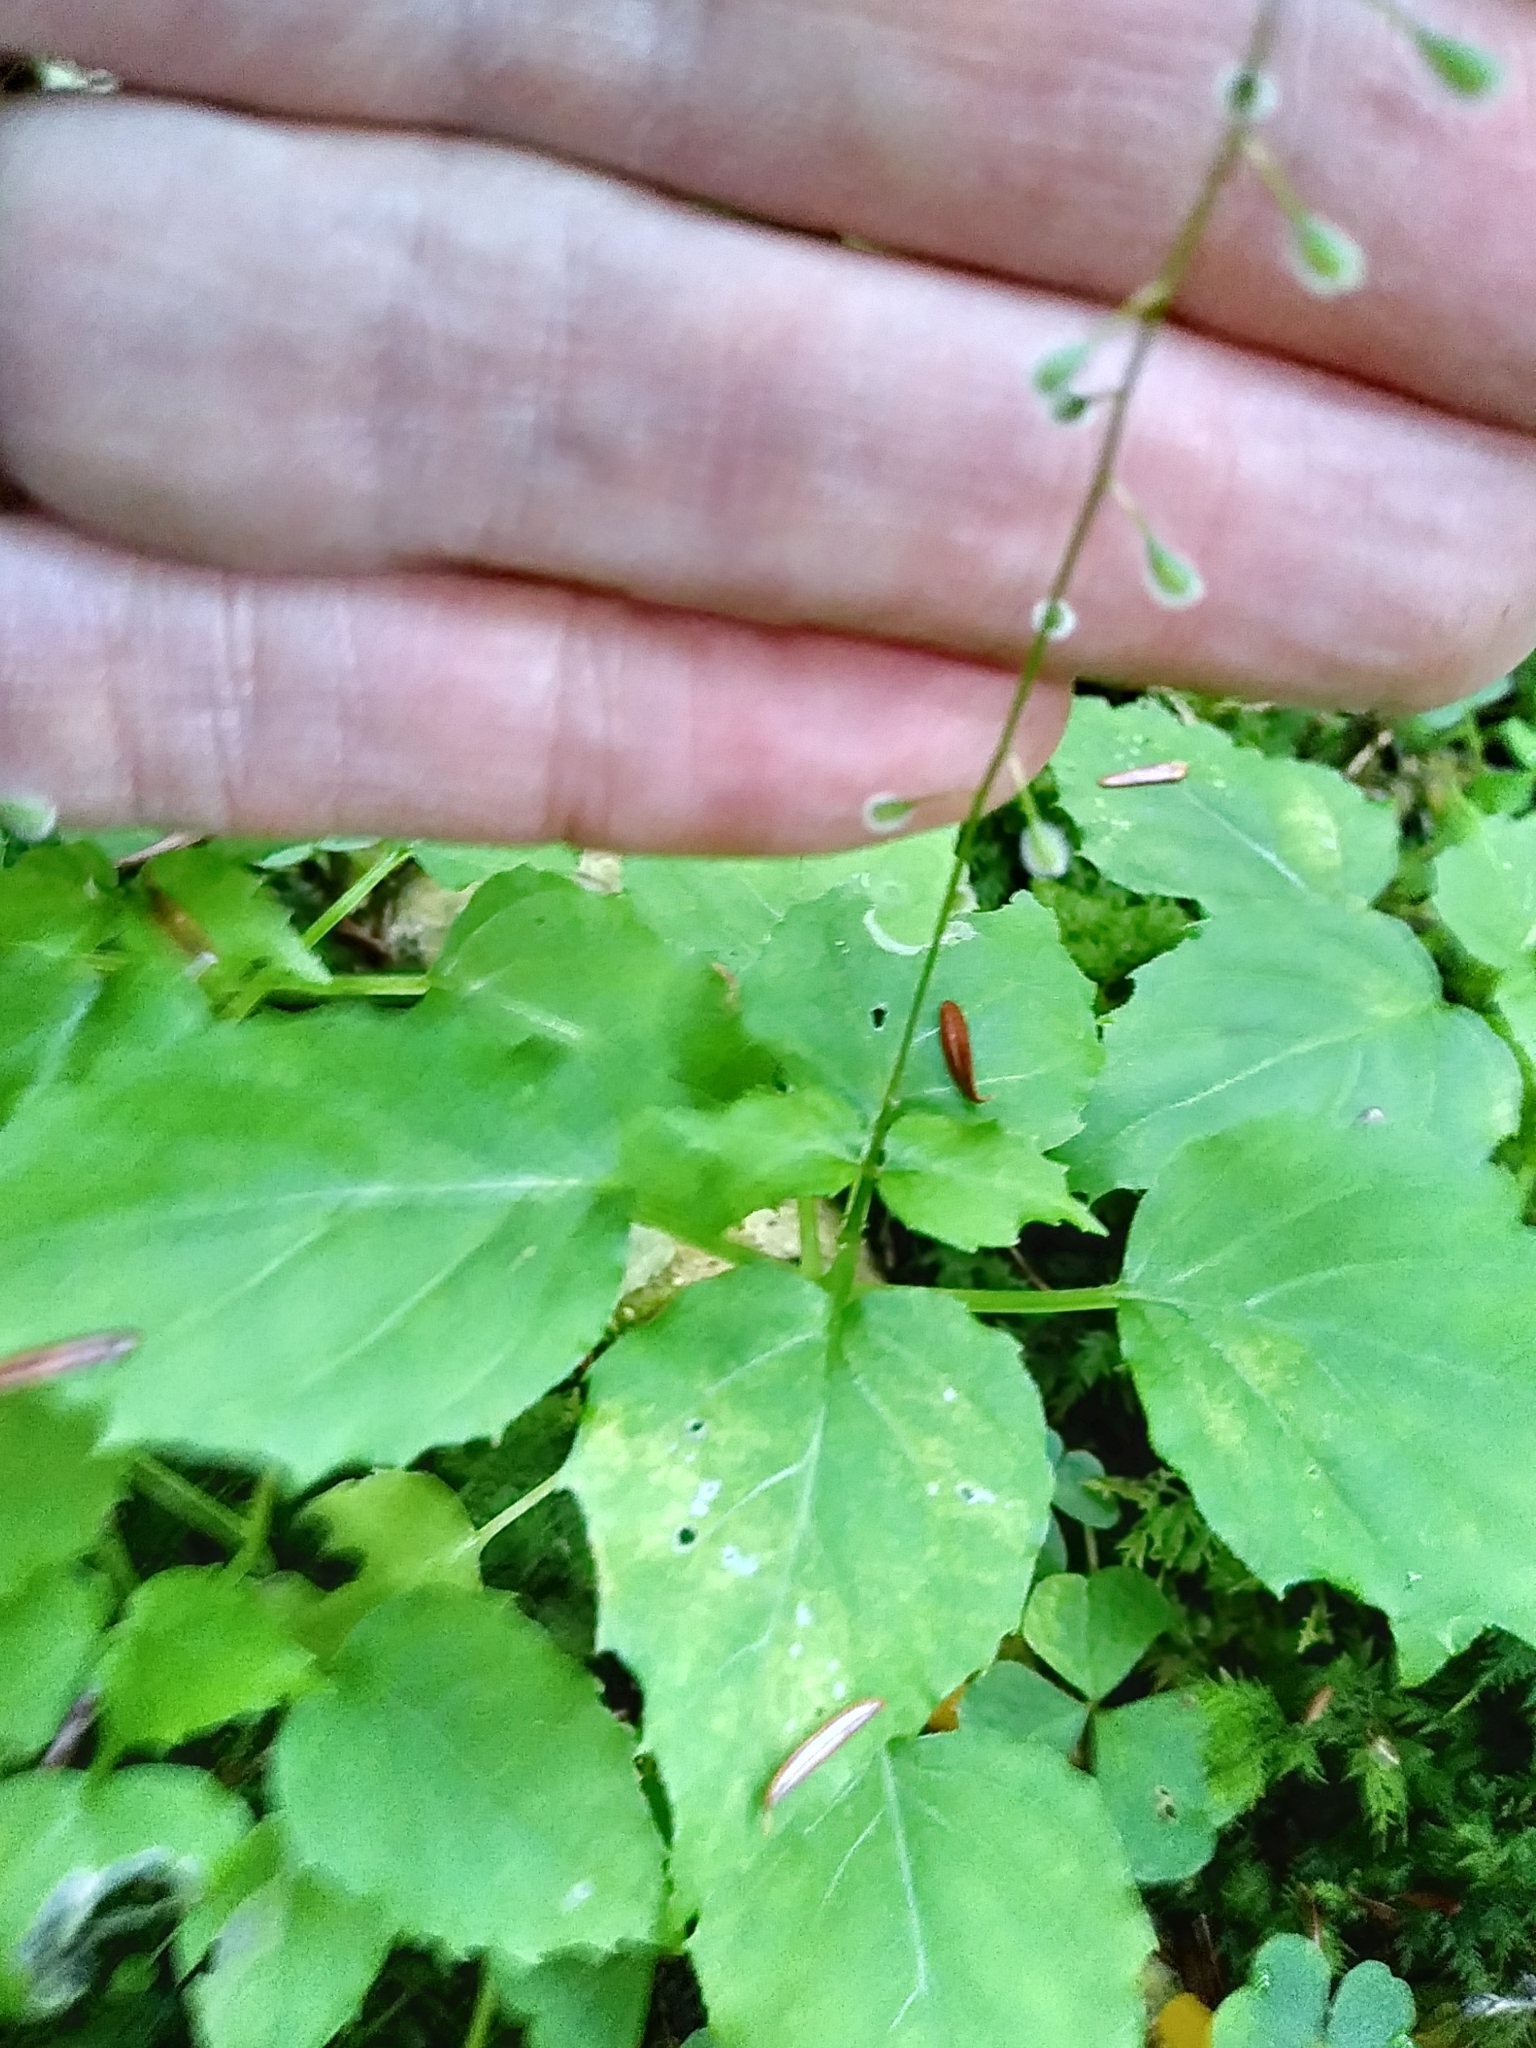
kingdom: Plantae
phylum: Tracheophyta
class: Magnoliopsida
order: Myrtales
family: Onagraceae
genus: Circaea
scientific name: Circaea canadensis
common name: Broad-leaved enchanter's nightshade
